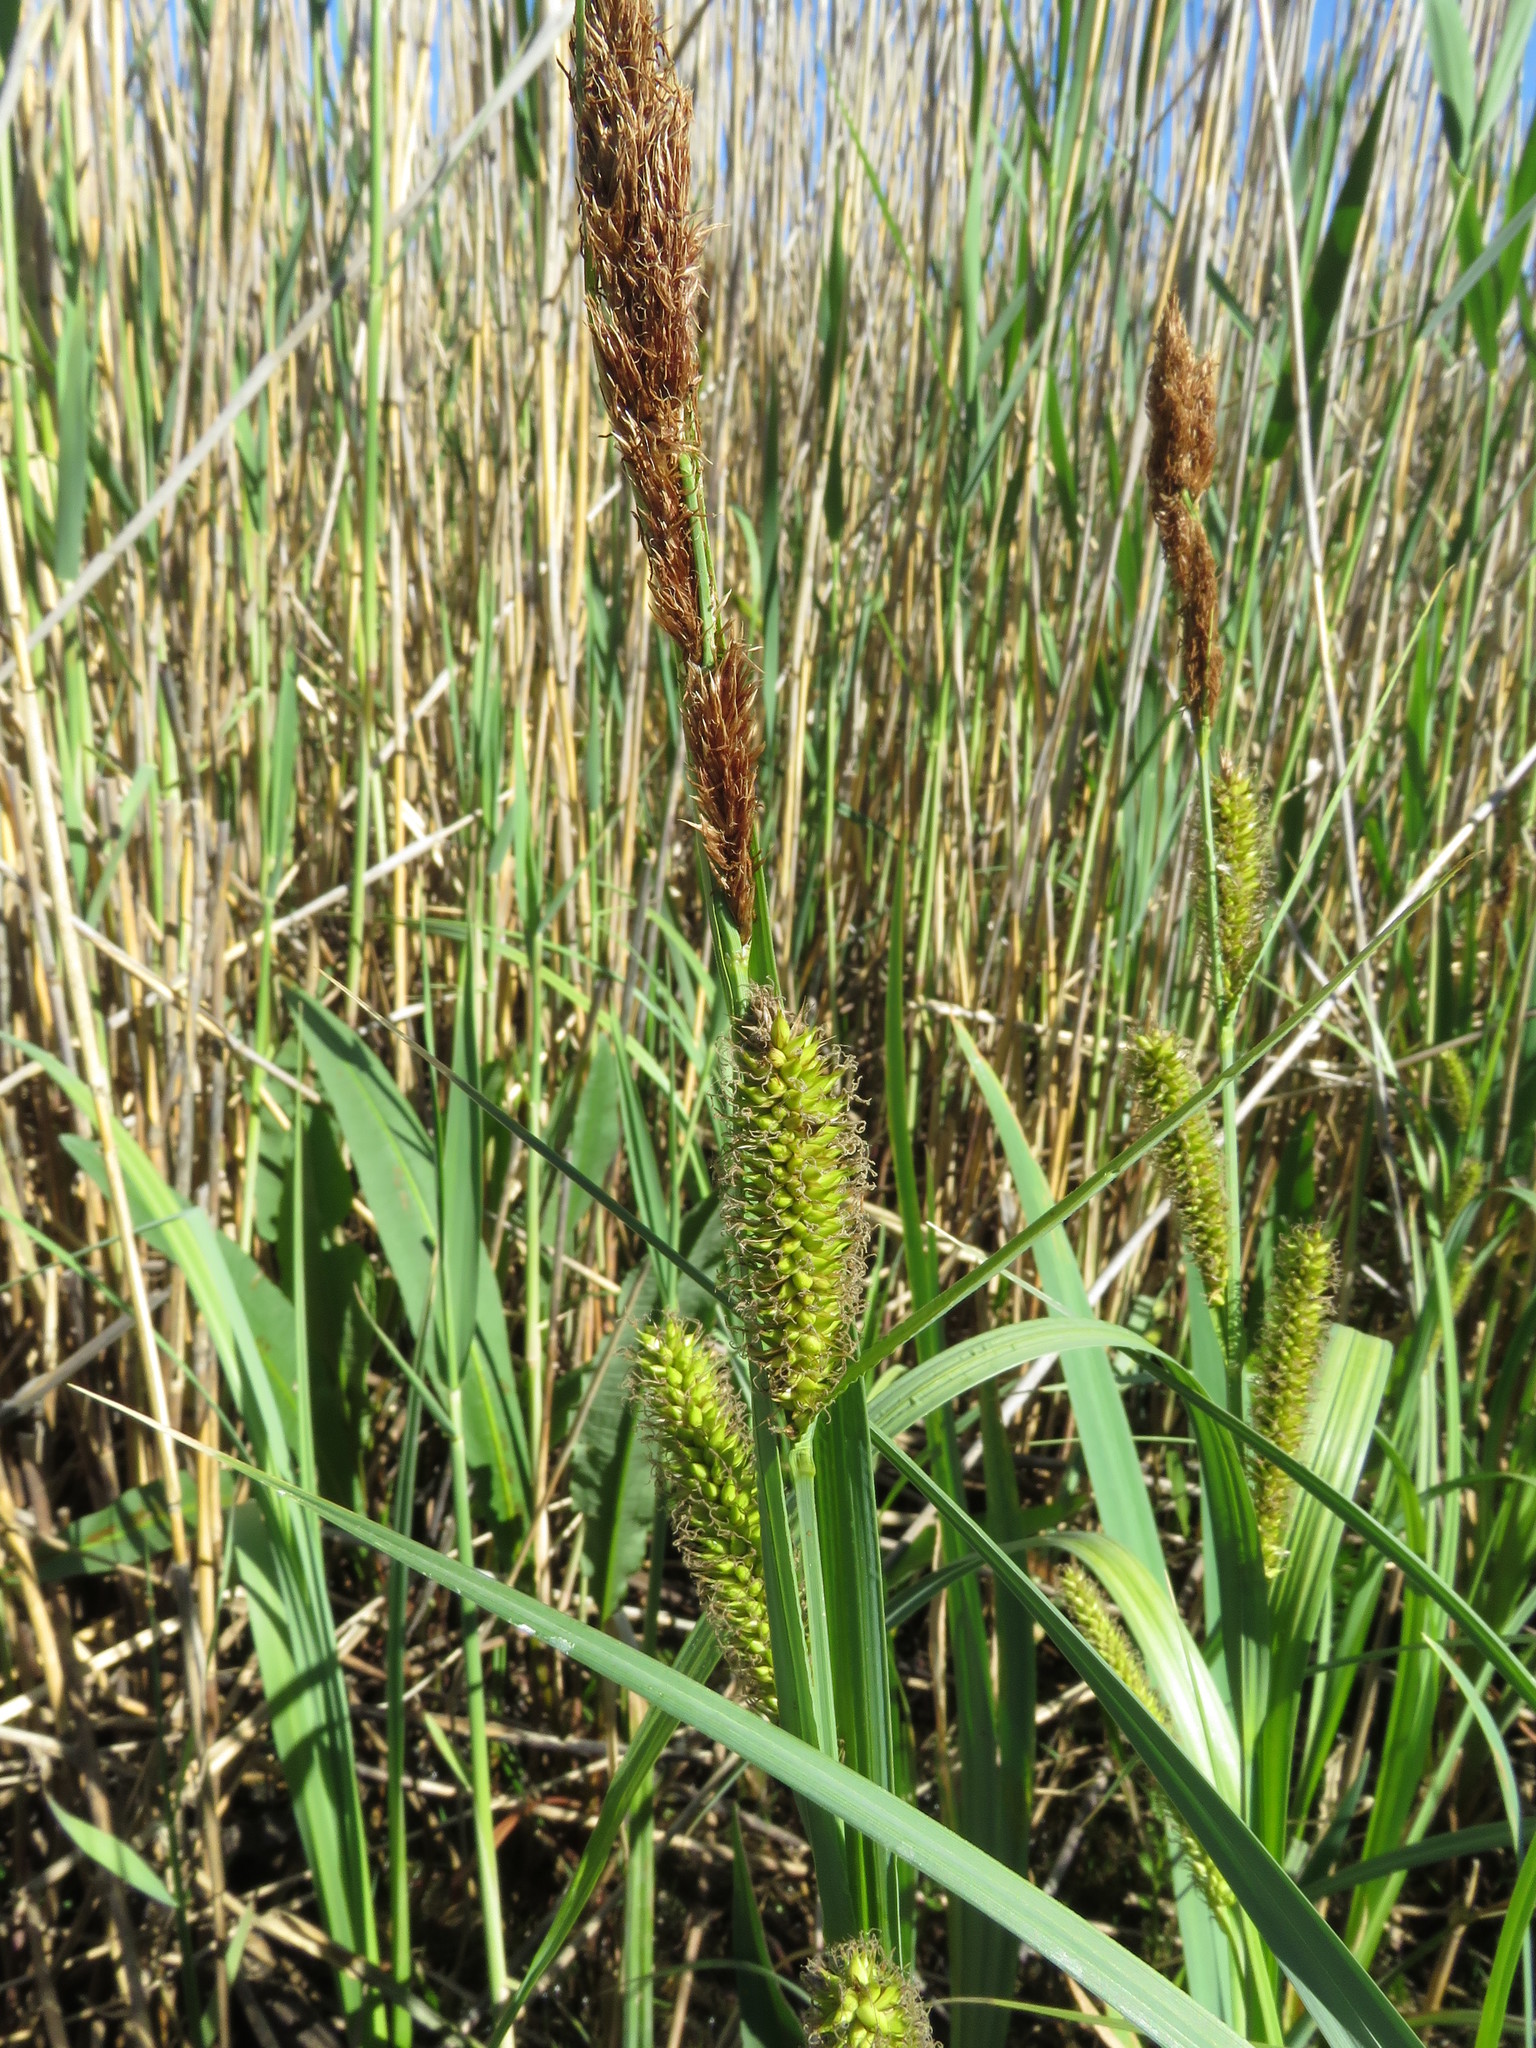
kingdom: Plantae
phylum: Tracheophyta
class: Liliopsida
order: Poales
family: Cyperaceae
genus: Carex
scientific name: Carex riparia
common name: Greater pond-sedge
